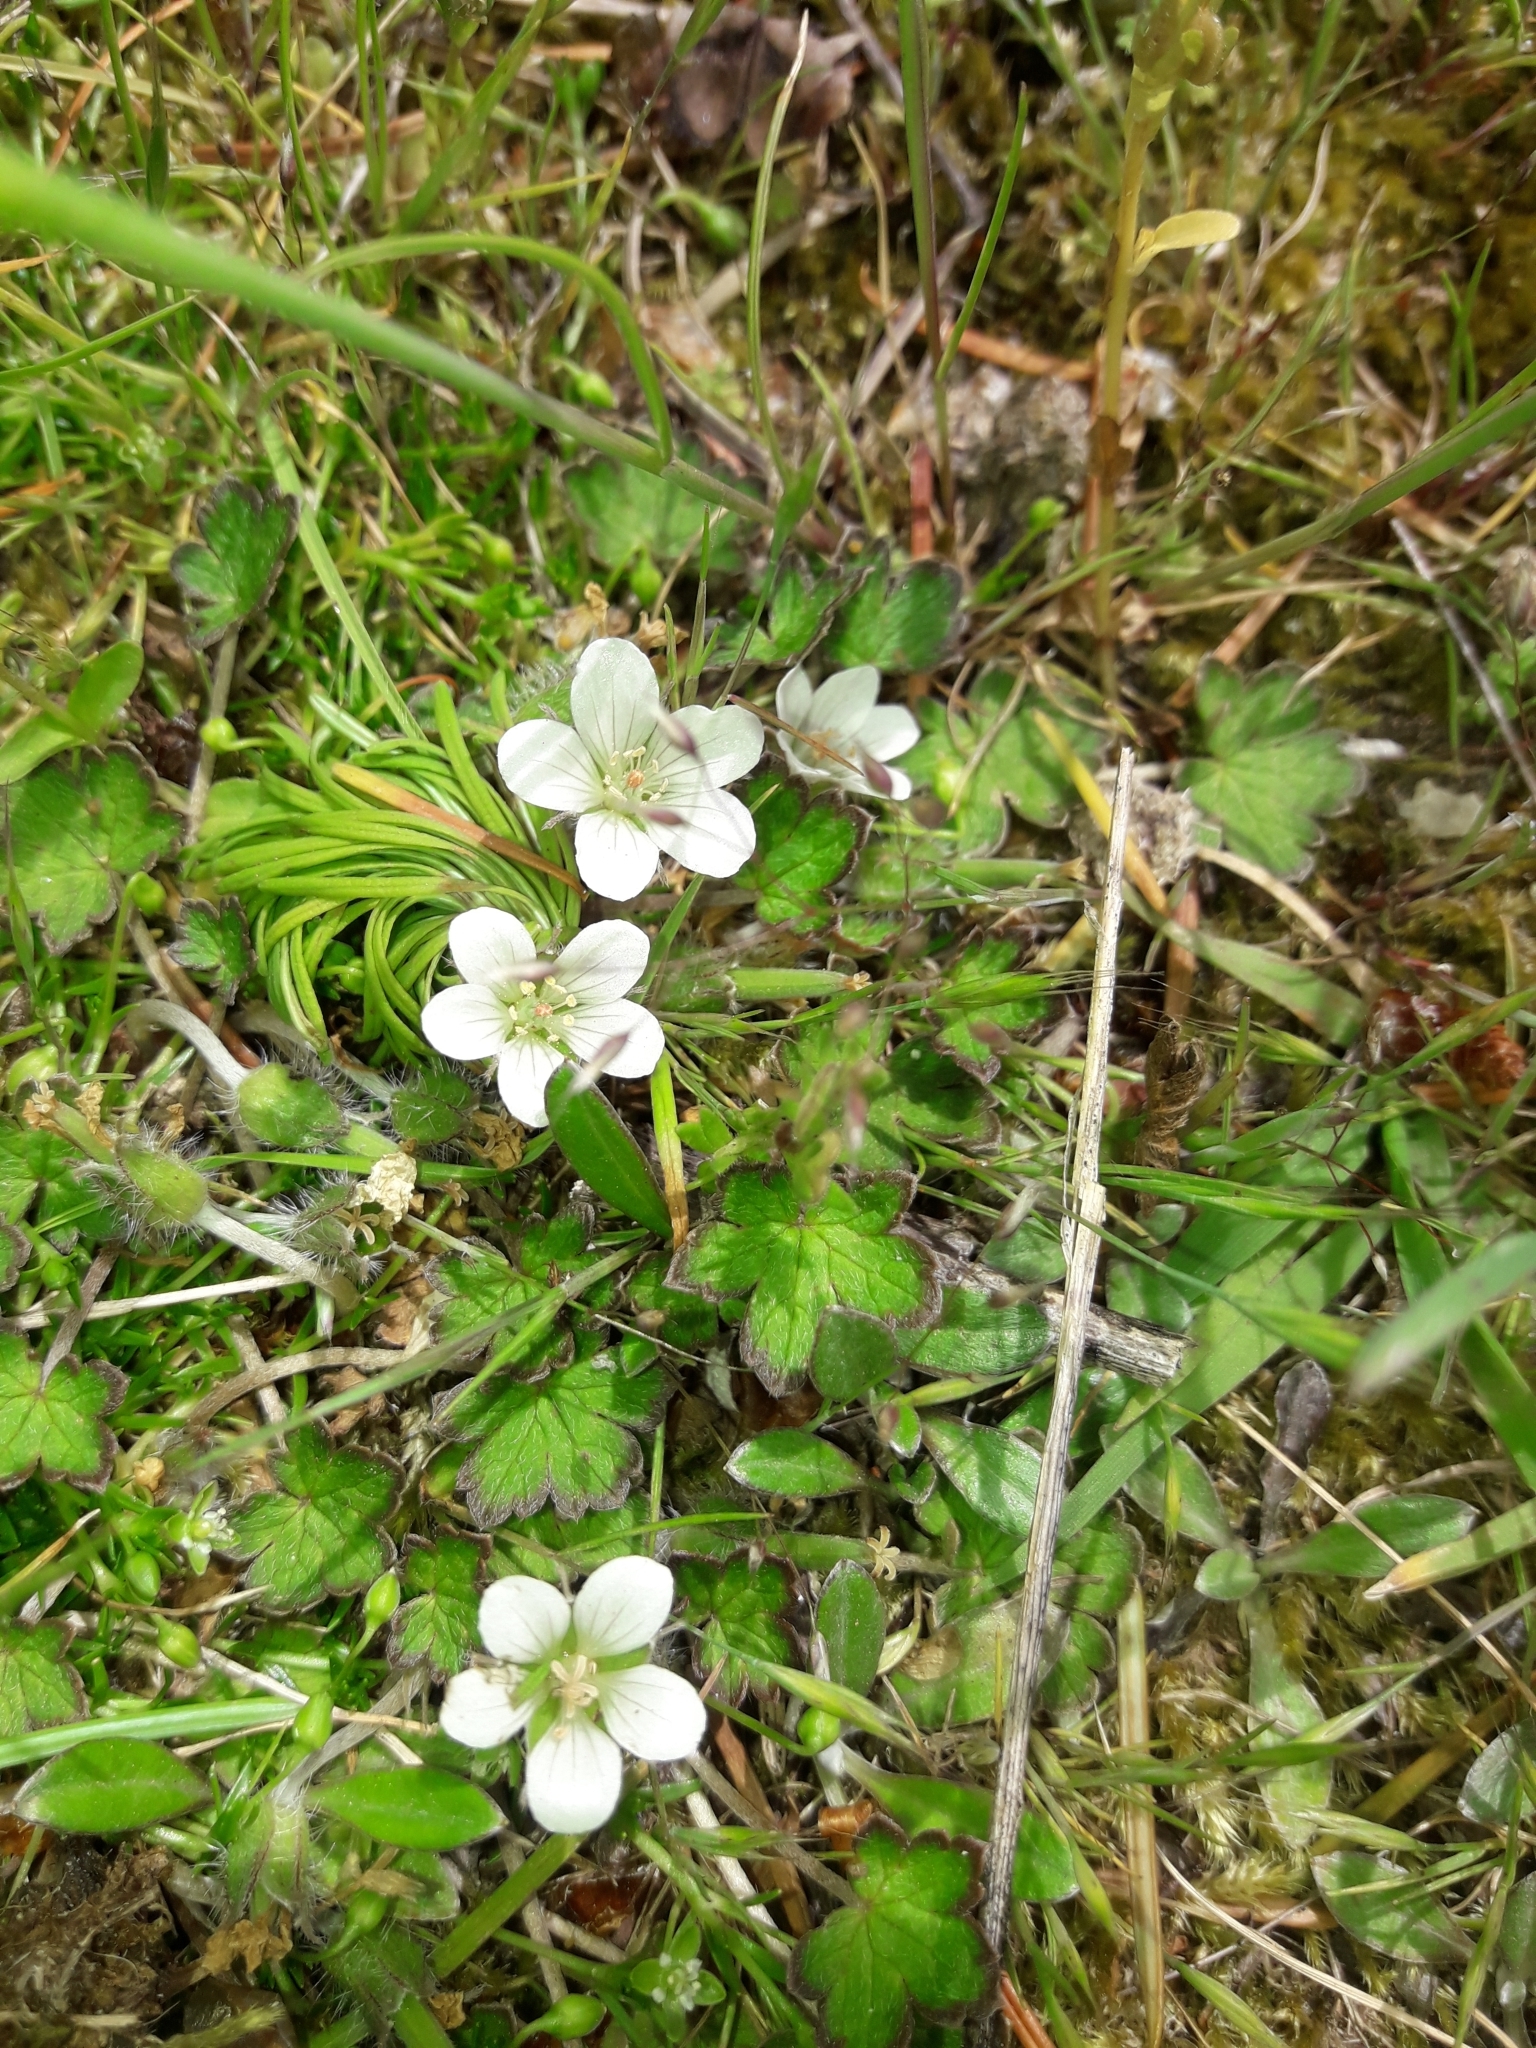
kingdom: Plantae
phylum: Tracheophyta
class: Magnoliopsida
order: Geraniales
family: Geraniaceae
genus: Geranium
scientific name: Geranium brevicaule
